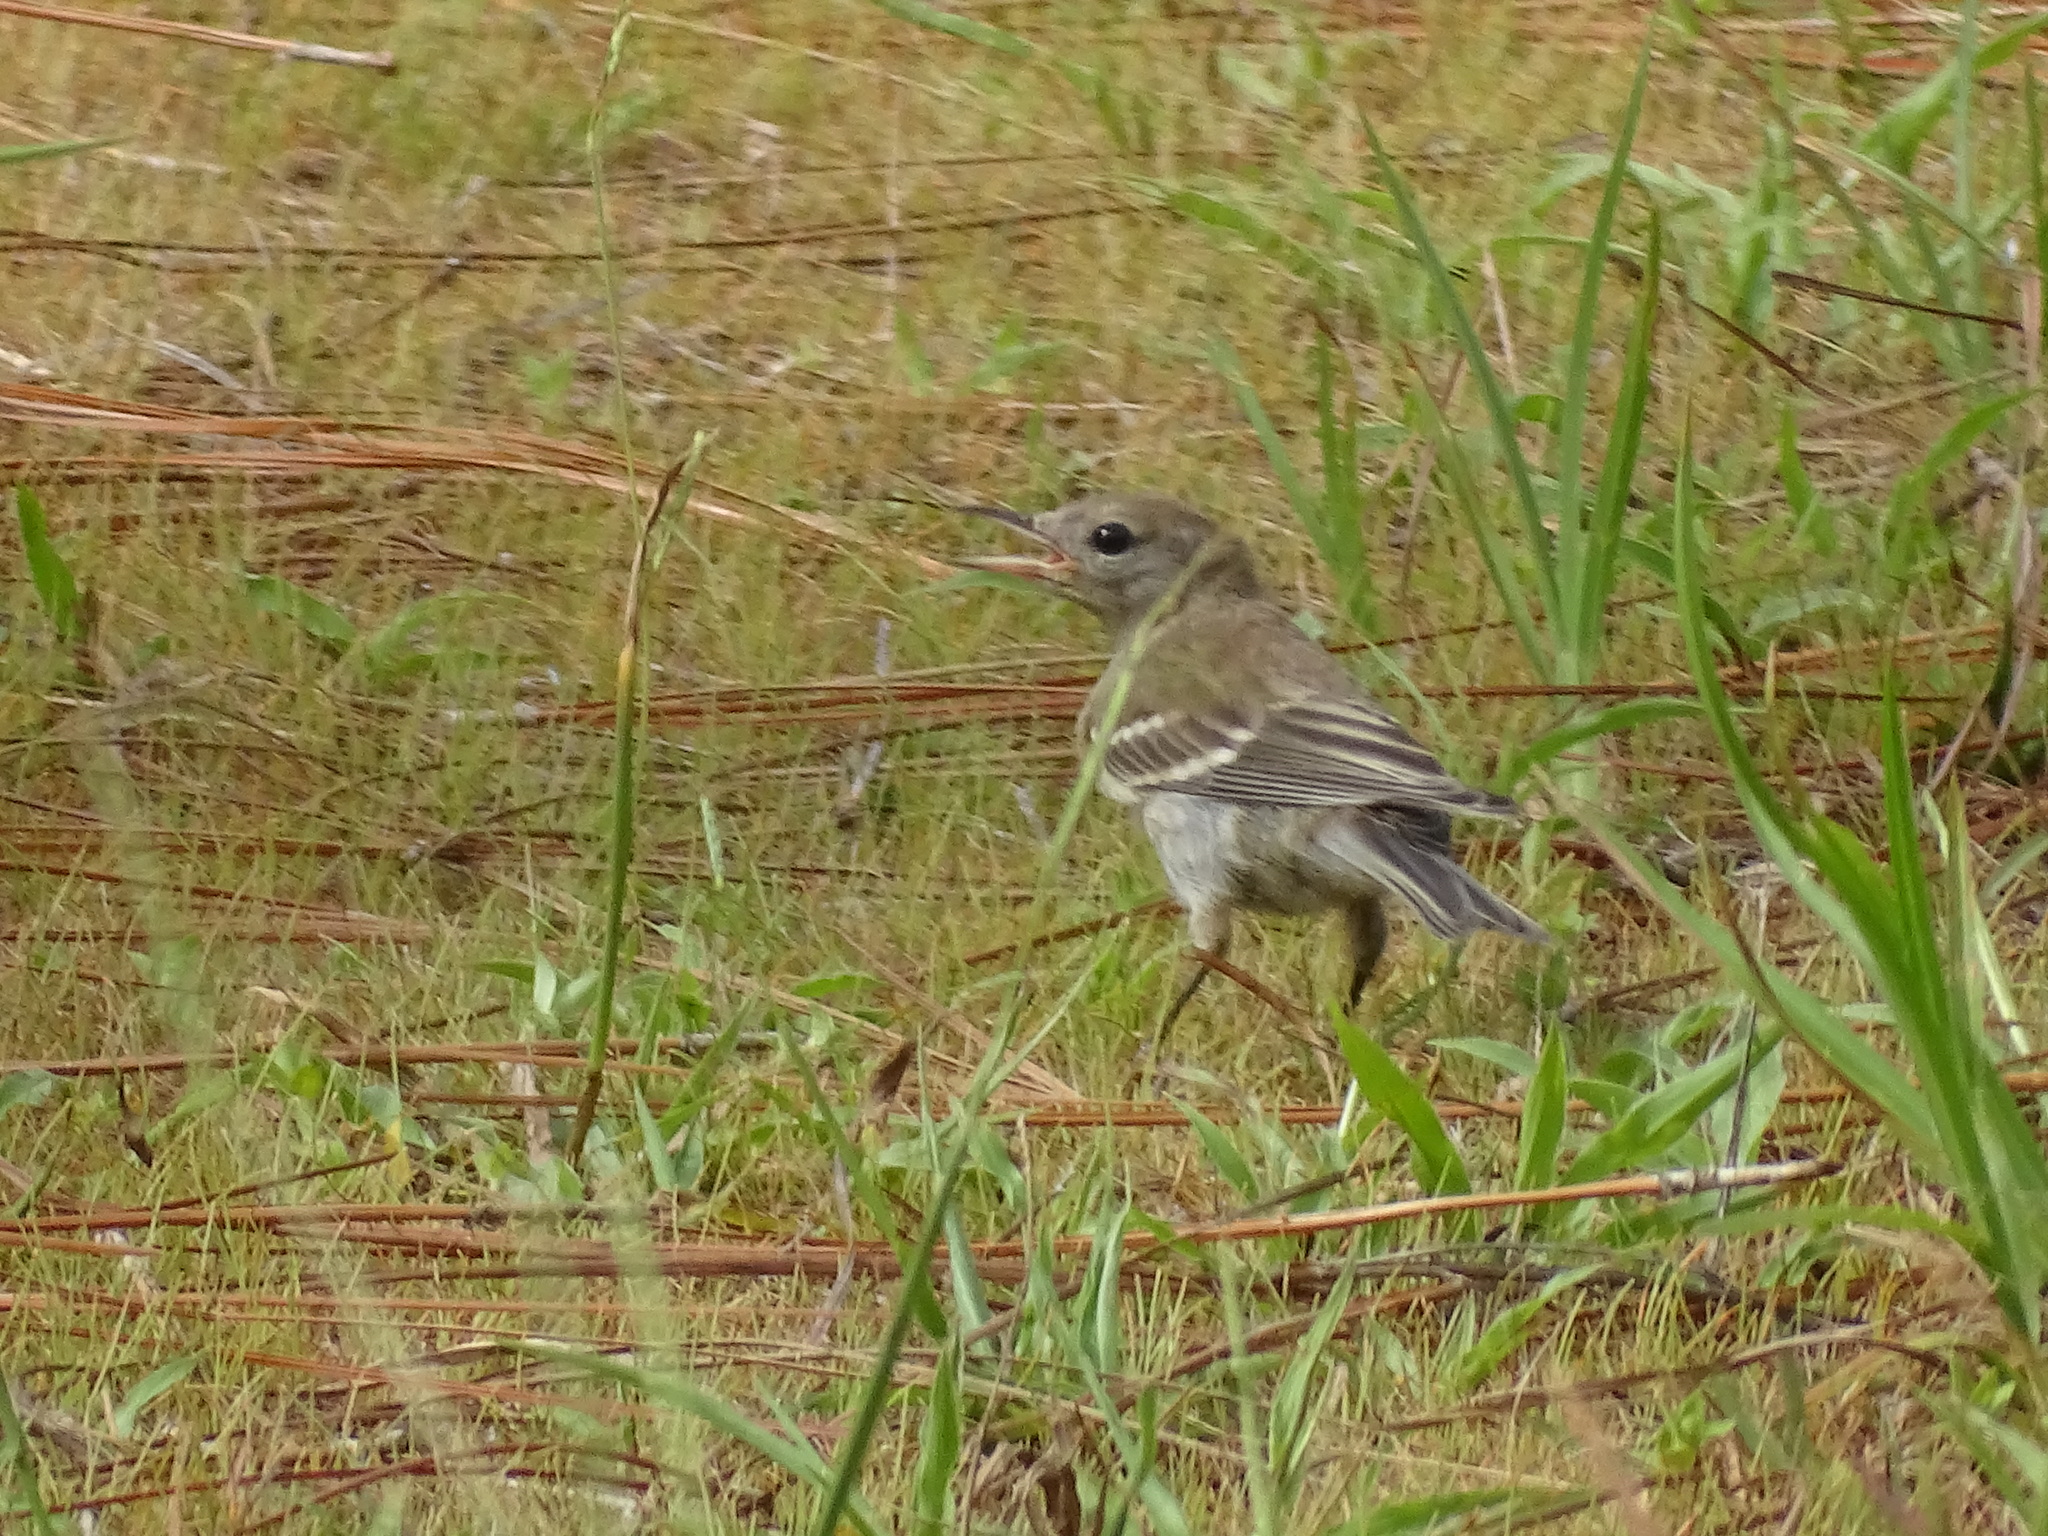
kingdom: Animalia
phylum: Chordata
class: Aves
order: Passeriformes
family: Parulidae
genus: Setophaga
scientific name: Setophaga pinus
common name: Pine warbler
